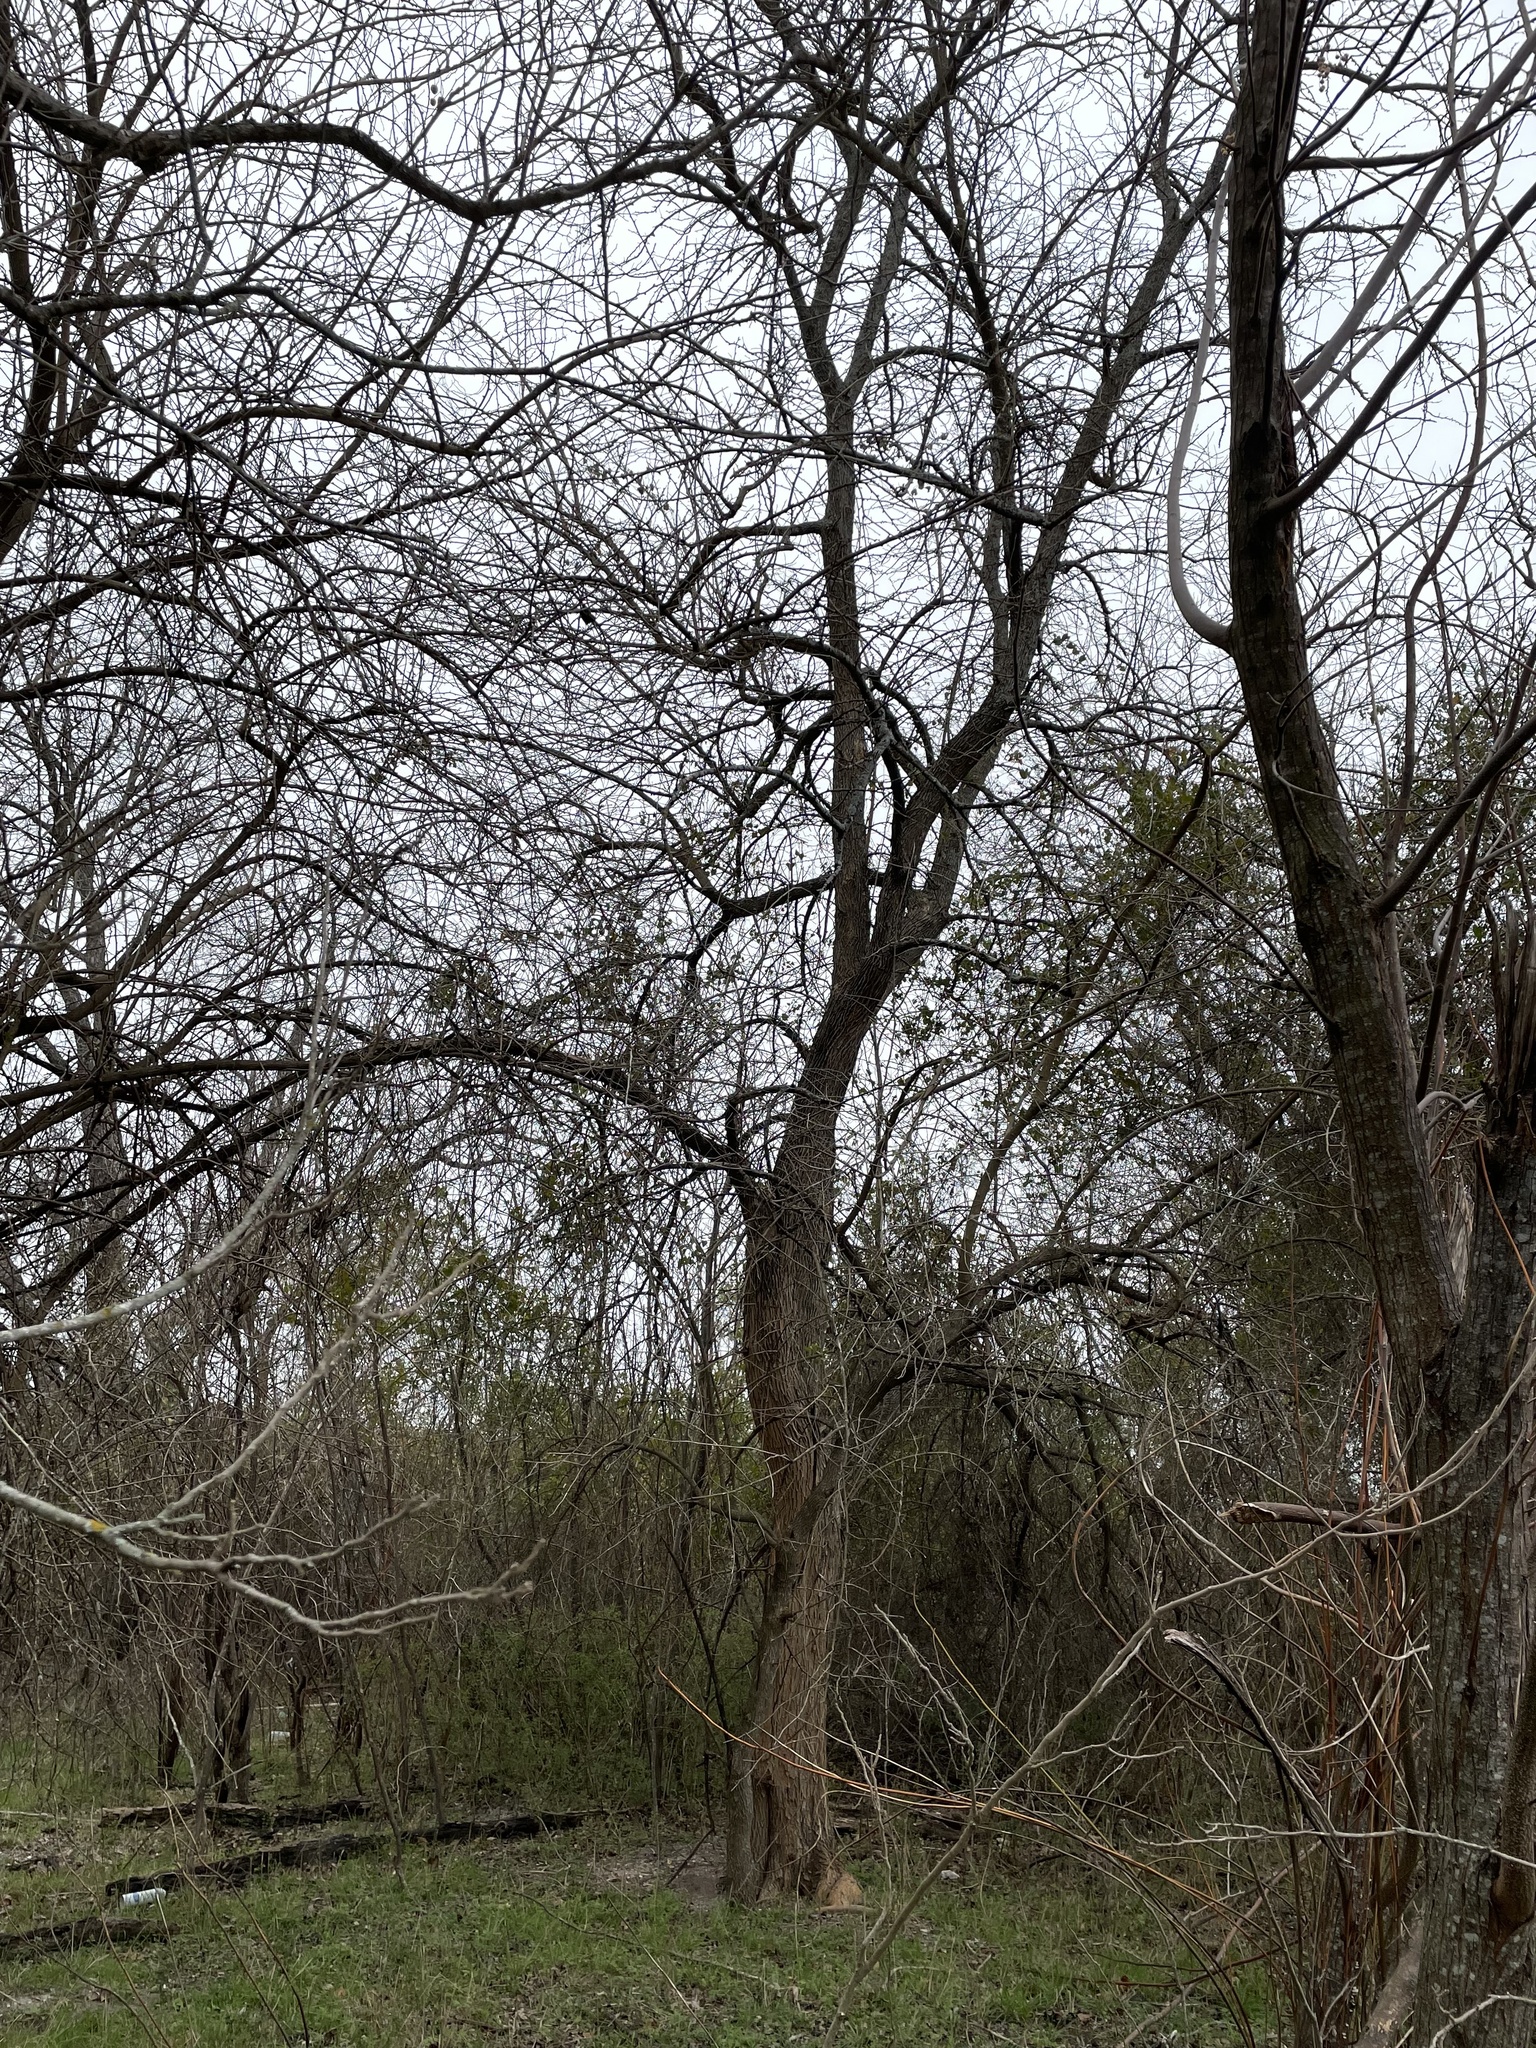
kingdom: Plantae
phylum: Tracheophyta
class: Magnoliopsida
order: Rosales
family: Moraceae
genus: Maclura
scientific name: Maclura pomifera
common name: Osage-orange
